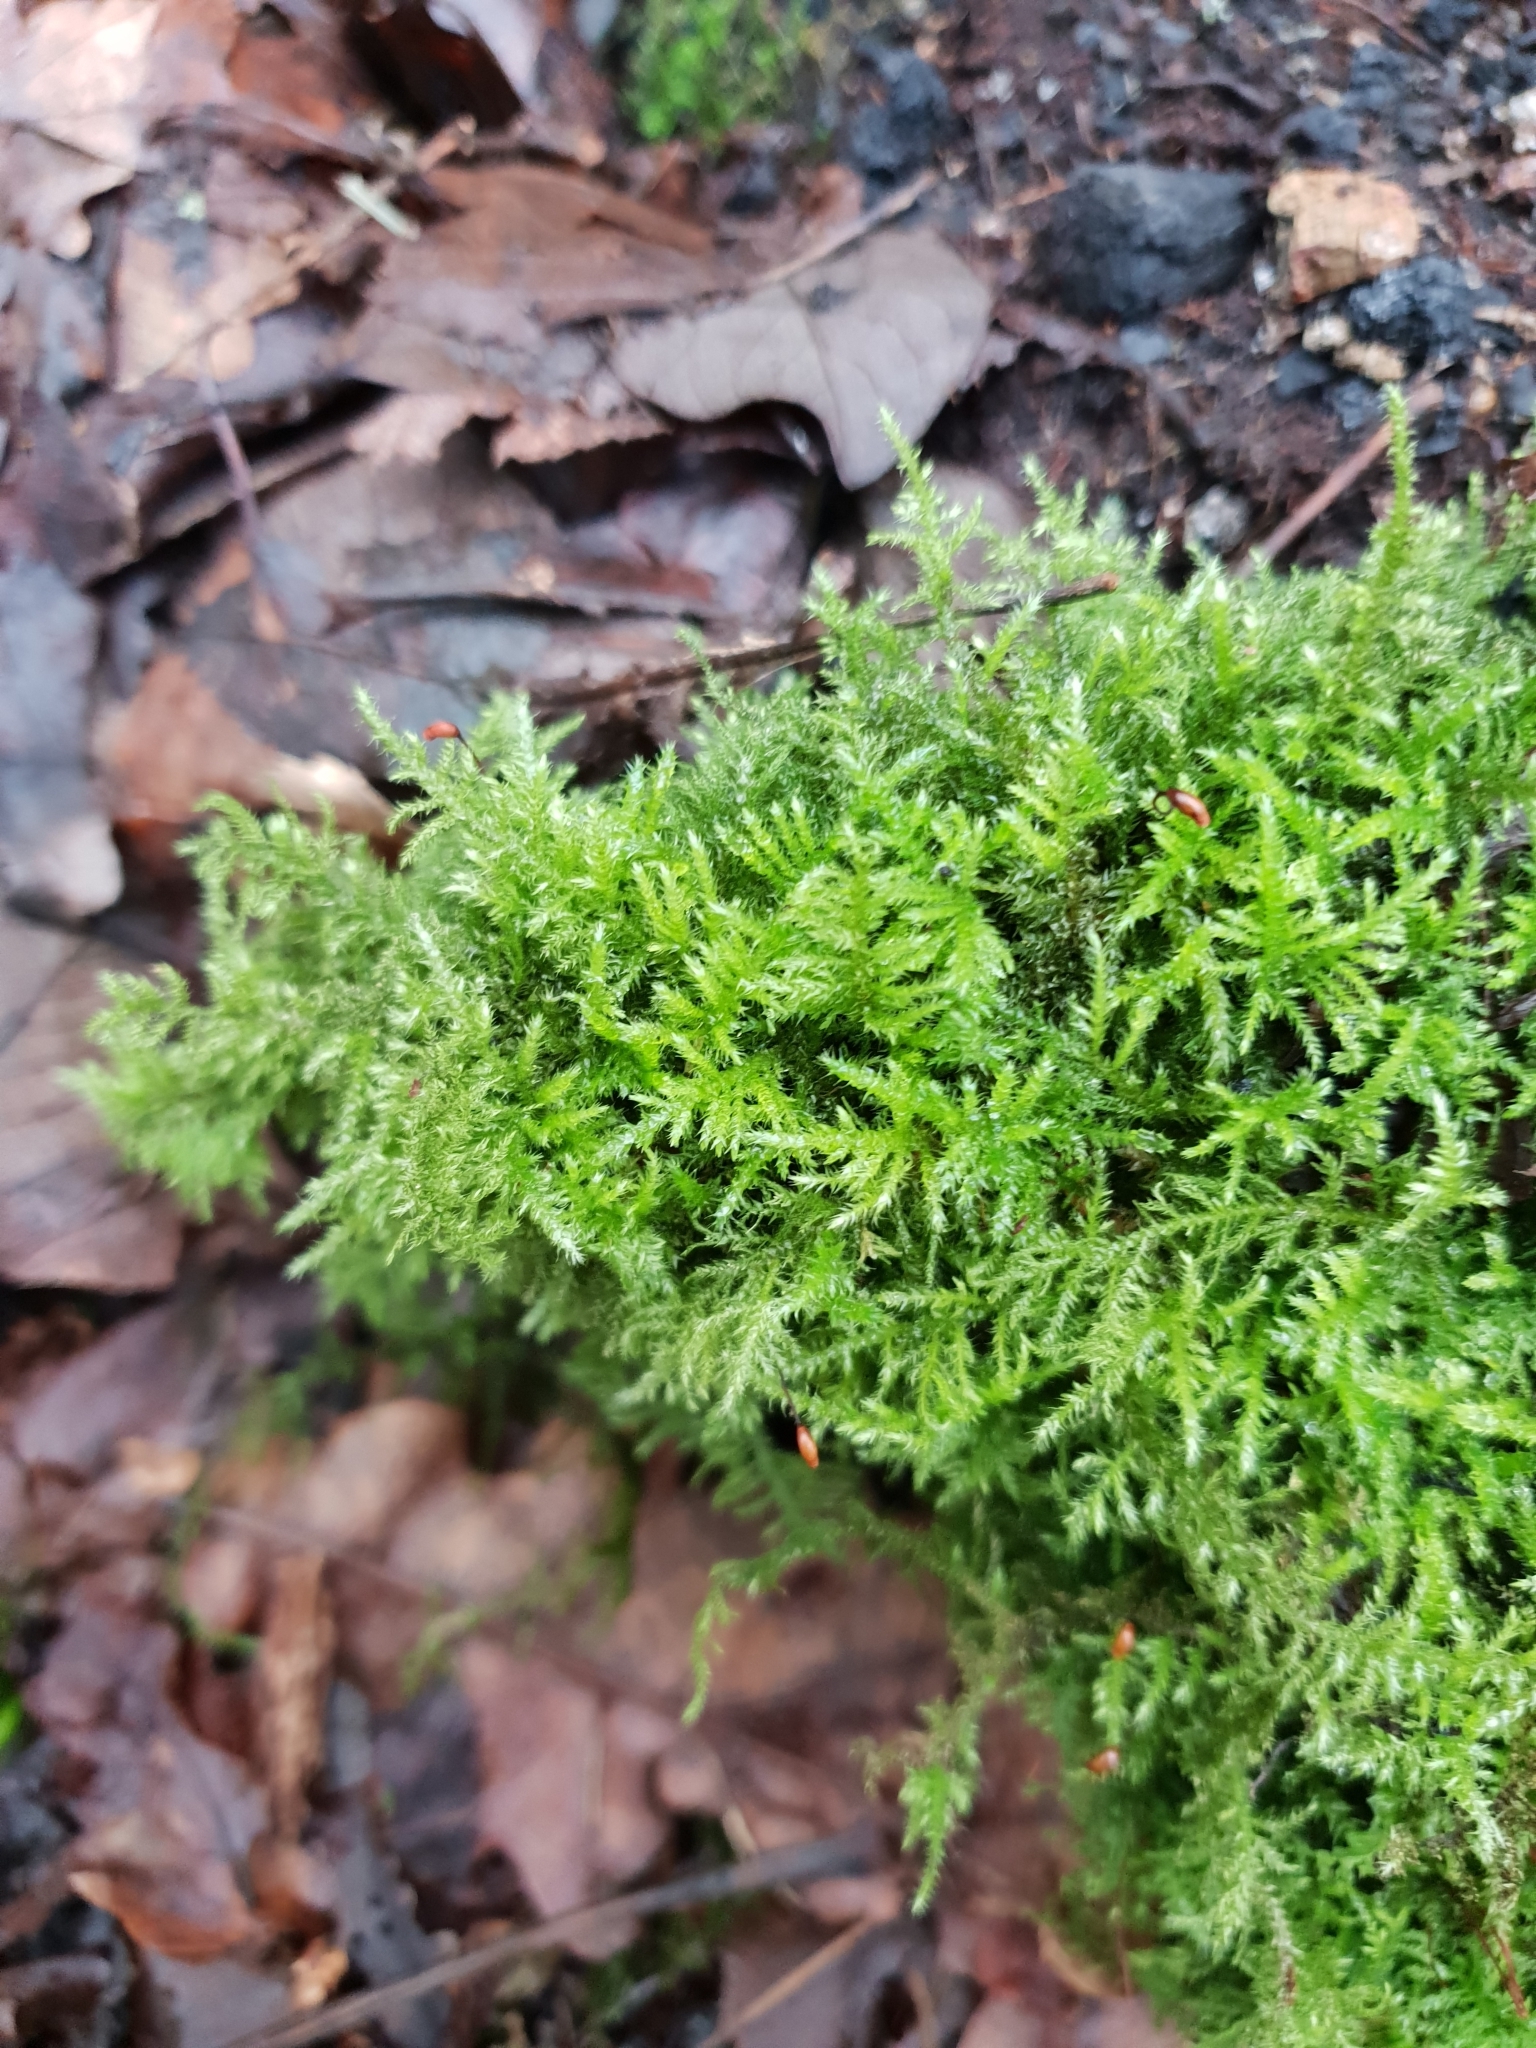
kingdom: Plantae
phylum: Bryophyta
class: Bryopsida
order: Hypnales
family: Brachytheciaceae
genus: Kindbergia
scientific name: Kindbergia praelonga
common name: Slender beaked moss
